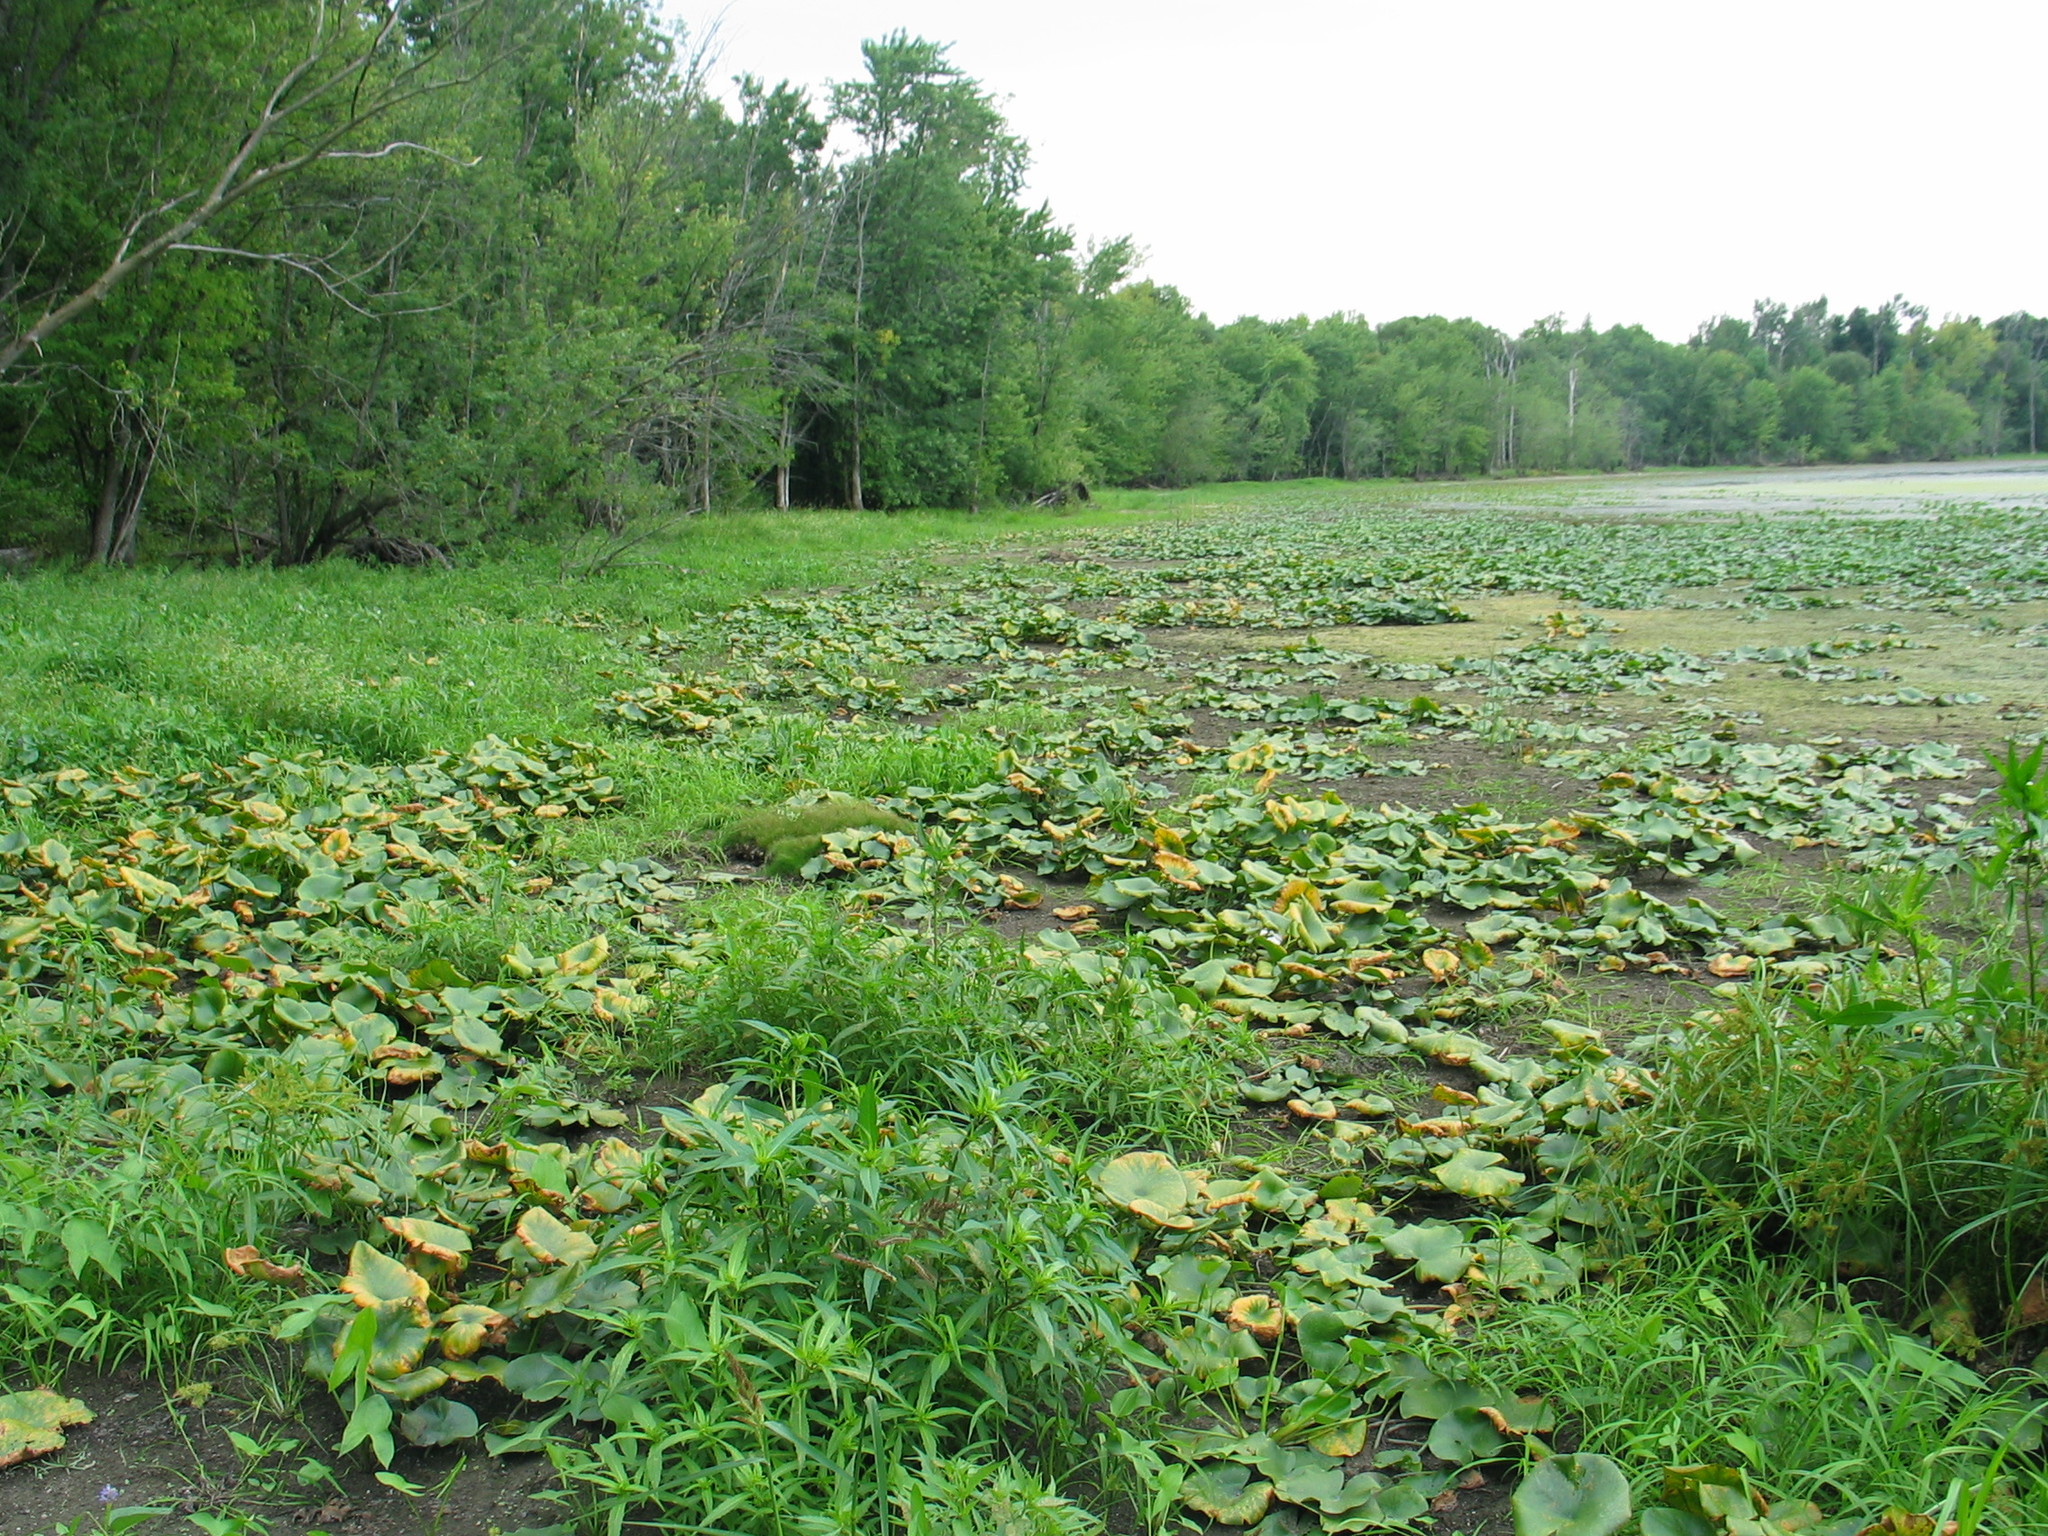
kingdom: Plantae
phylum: Tracheophyta
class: Magnoliopsida
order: Nymphaeales
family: Nymphaeaceae
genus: Nuphar
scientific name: Nuphar advena
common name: Spatter-dock
